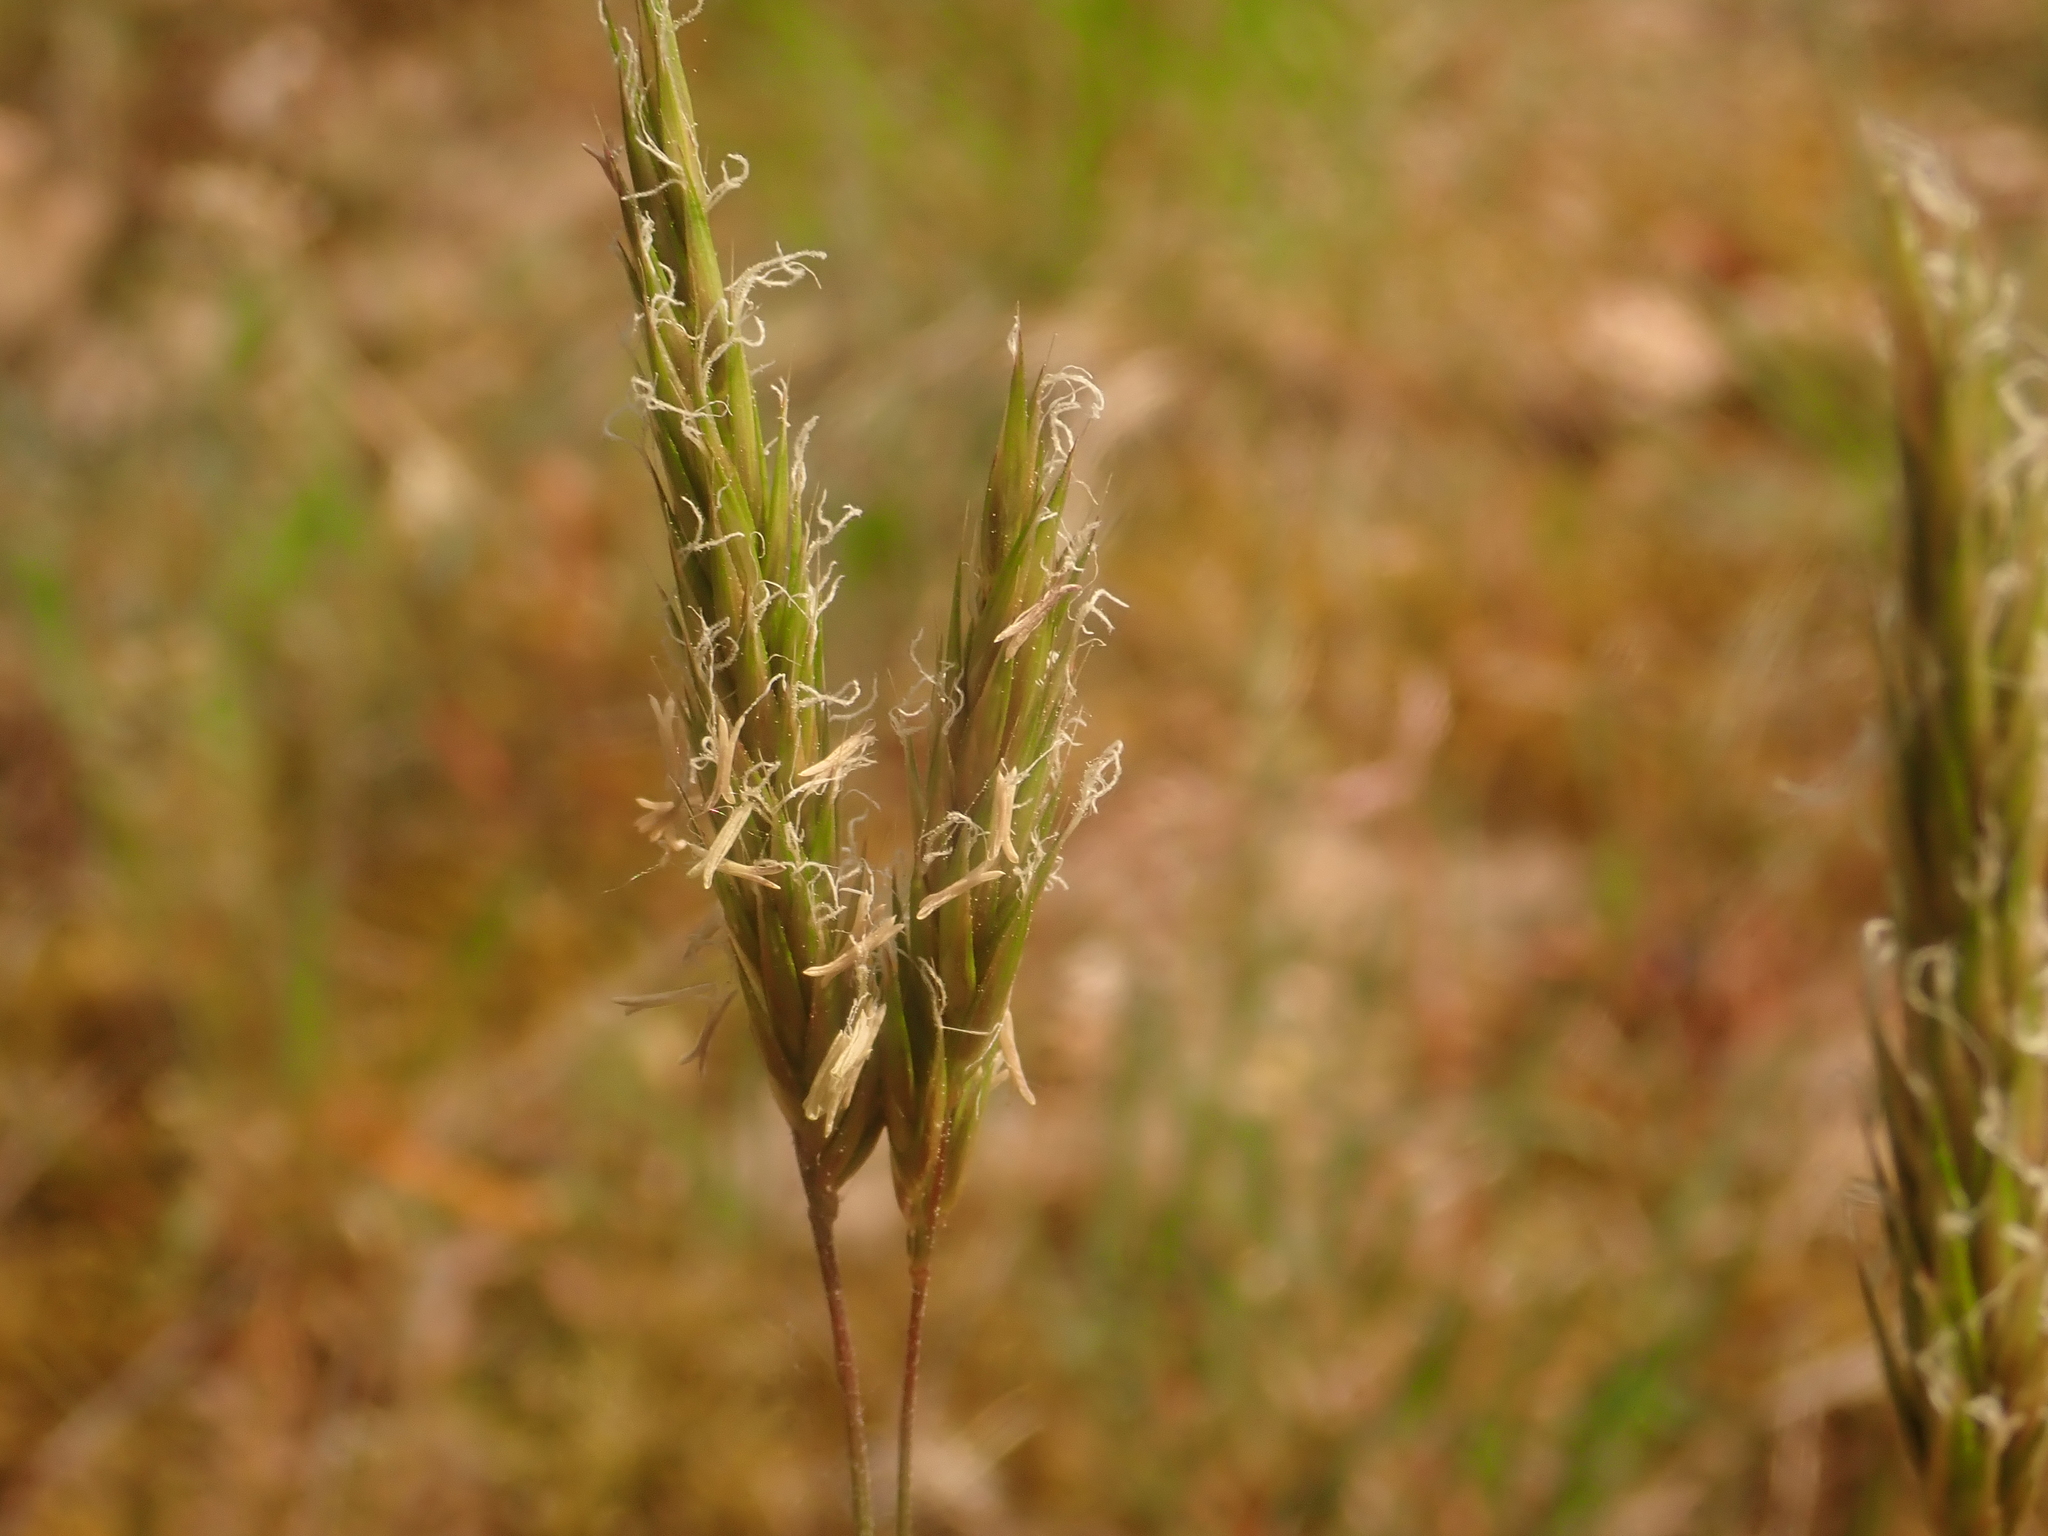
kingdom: Plantae
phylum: Tracheophyta
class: Liliopsida
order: Poales
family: Poaceae
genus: Anthoxanthum
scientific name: Anthoxanthum odoratum
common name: Sweet vernalgrass
